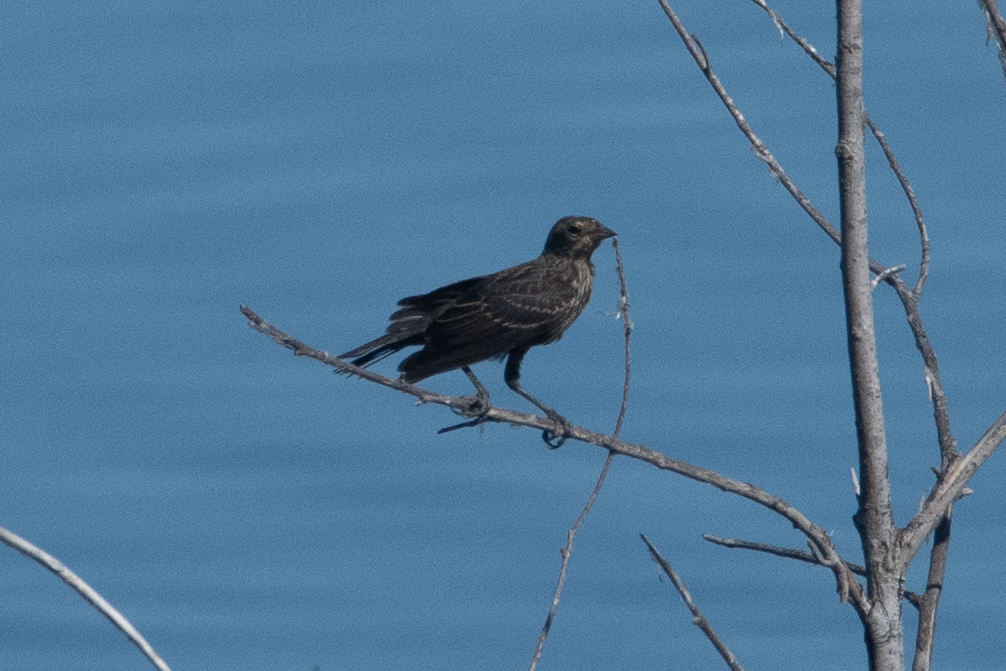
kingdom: Animalia
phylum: Chordata
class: Aves
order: Passeriformes
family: Icteridae
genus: Agelaius
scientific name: Agelaius phoeniceus
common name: Red-winged blackbird
